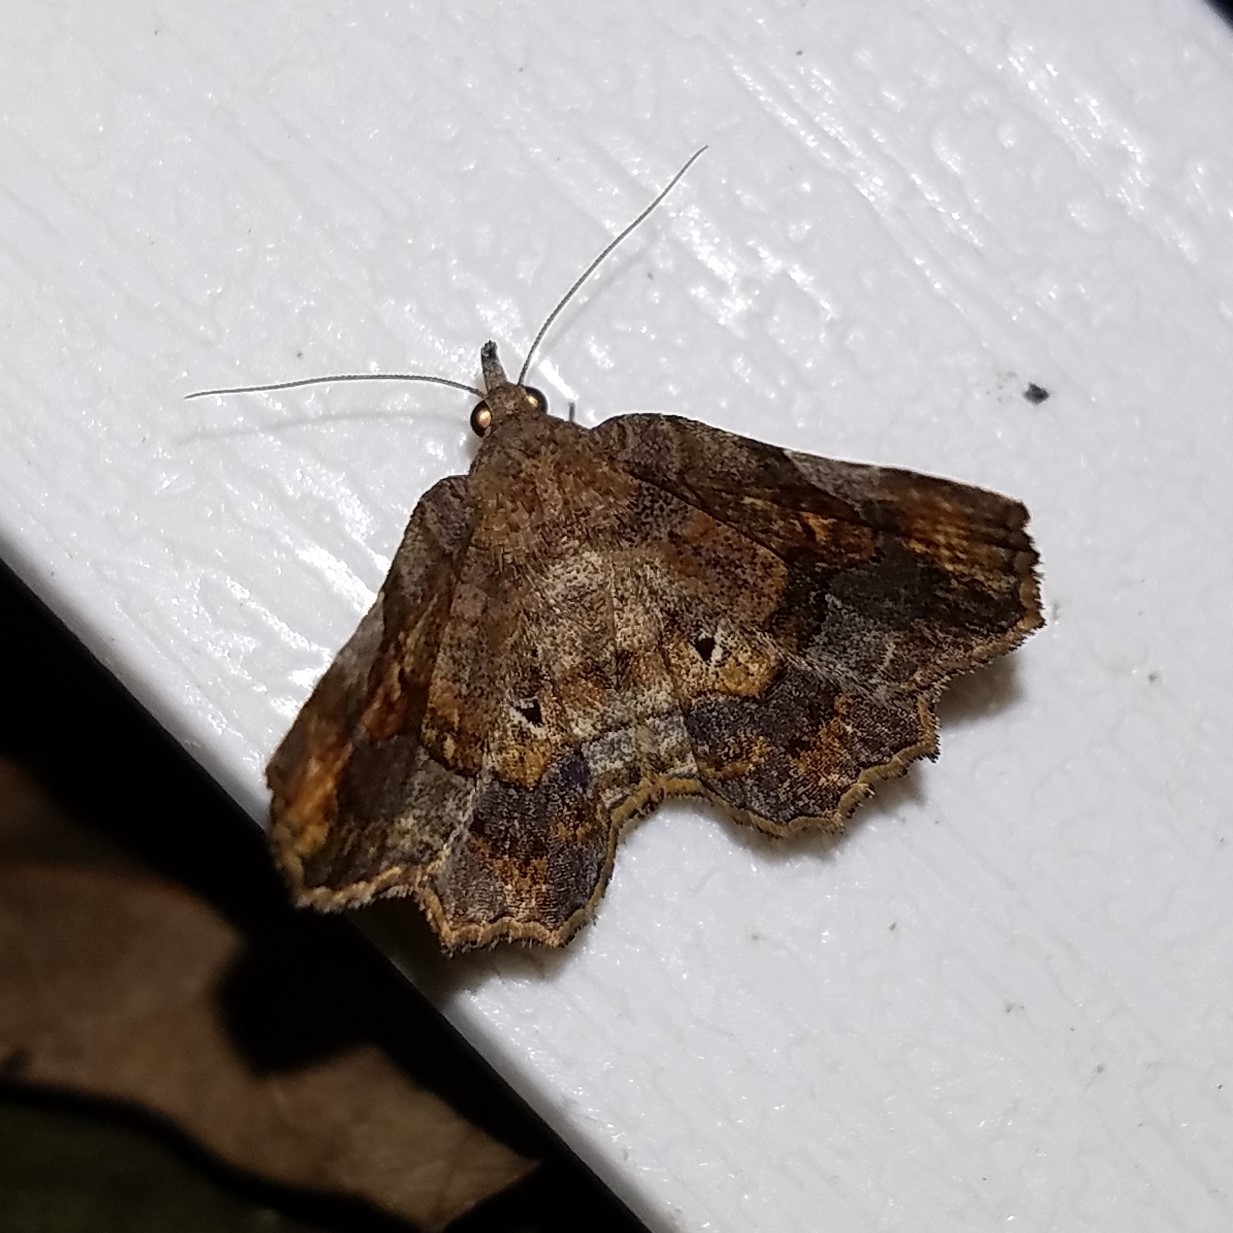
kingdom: Animalia
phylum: Arthropoda
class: Insecta
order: Lepidoptera
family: Erebidae
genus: Pangrapta
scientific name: Pangrapta decoralis
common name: Decorated owlet
